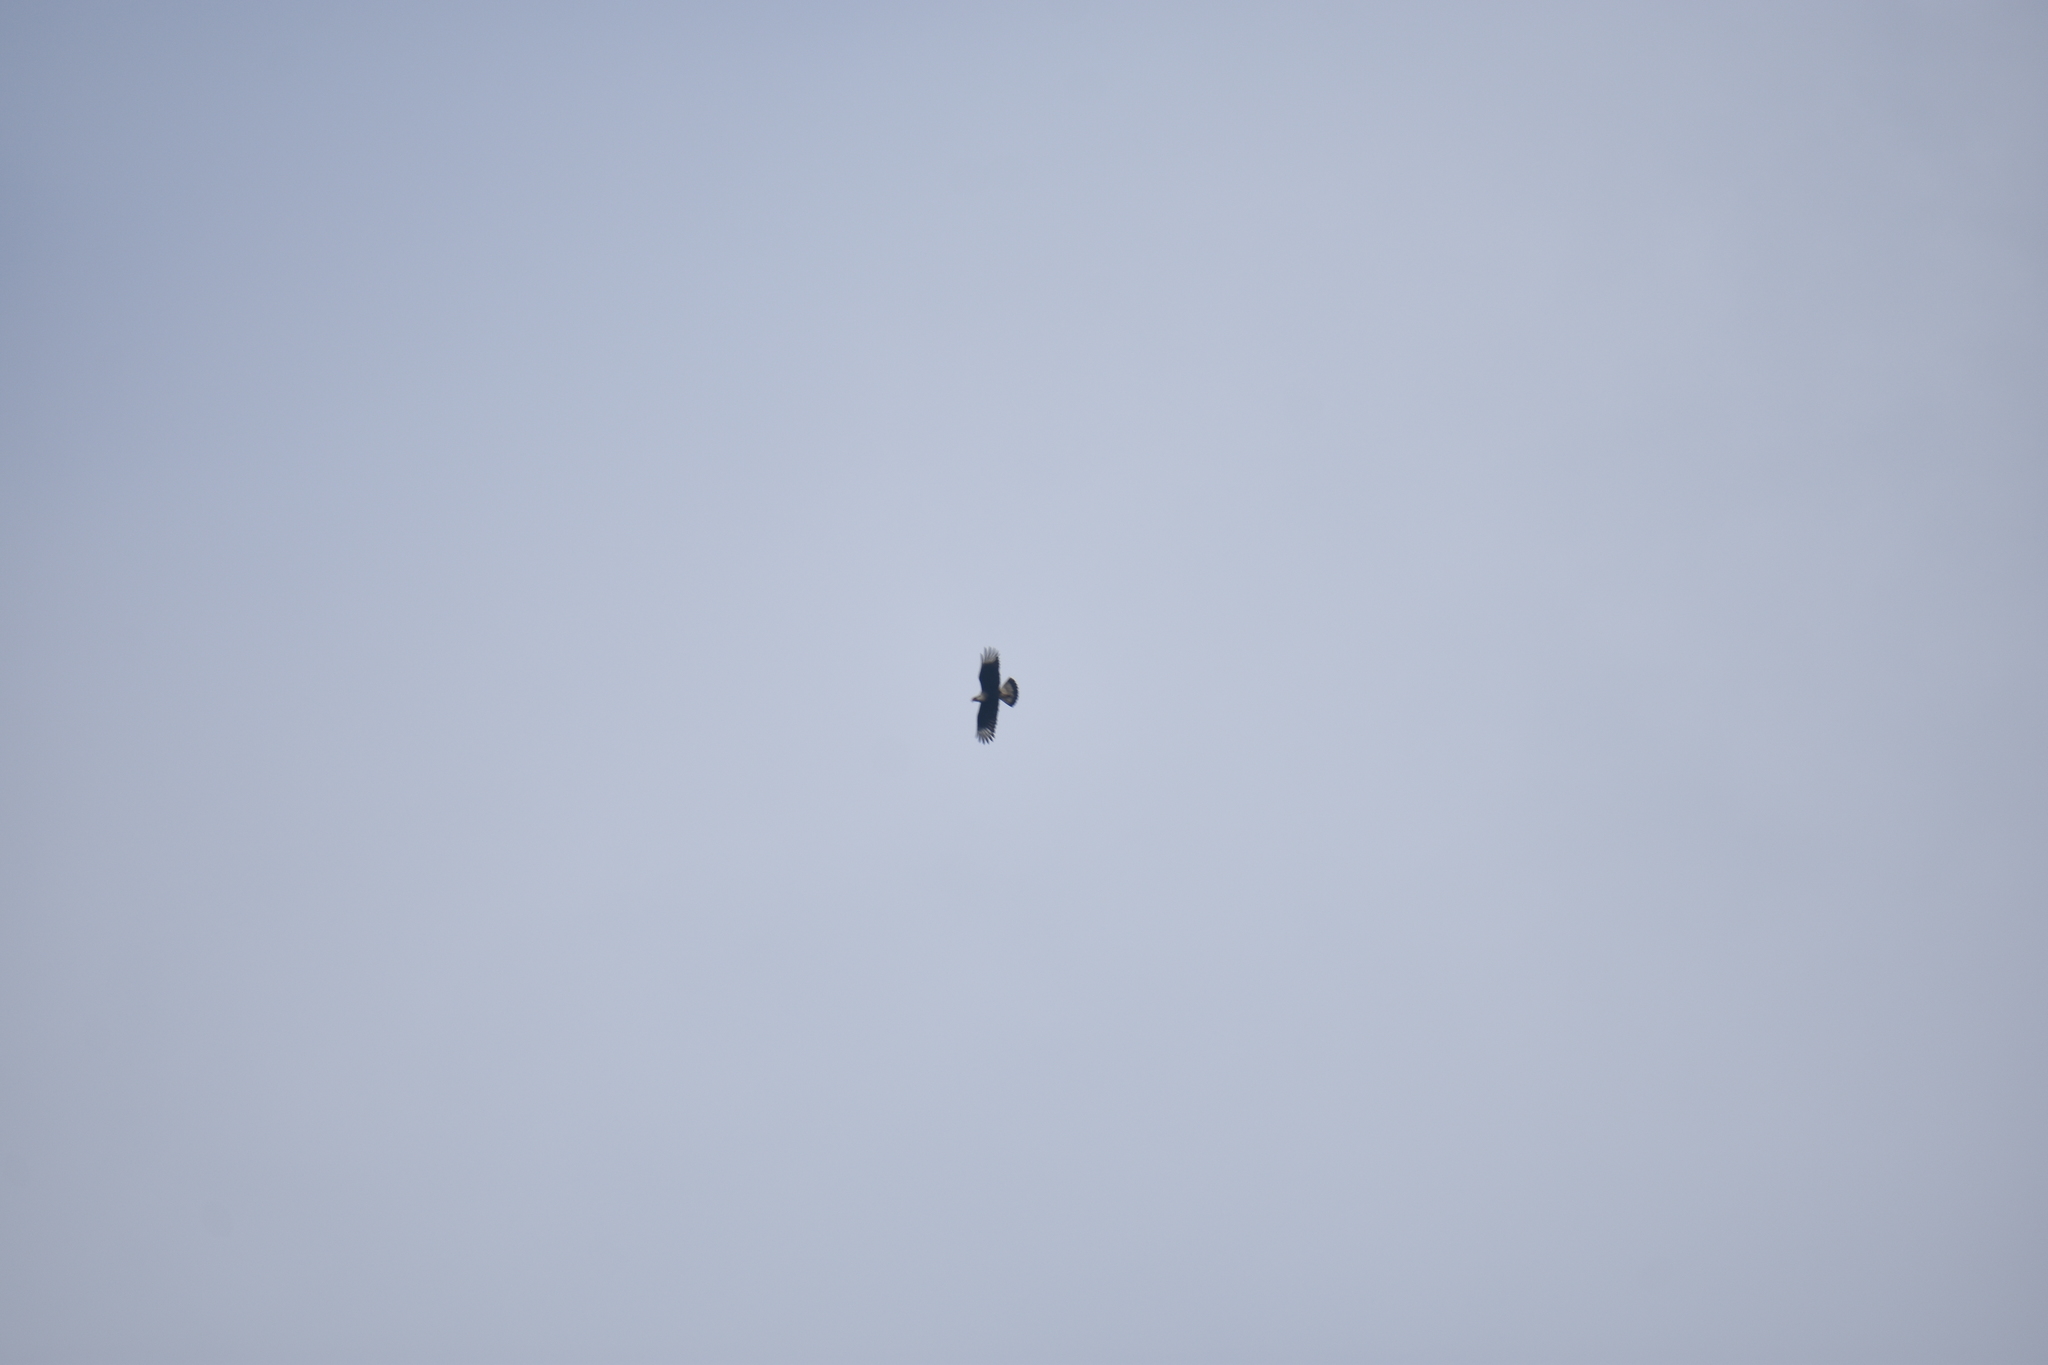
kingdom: Animalia
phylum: Chordata
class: Aves
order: Falconiformes
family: Falconidae
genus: Caracara
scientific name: Caracara plancus
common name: Southern caracara
